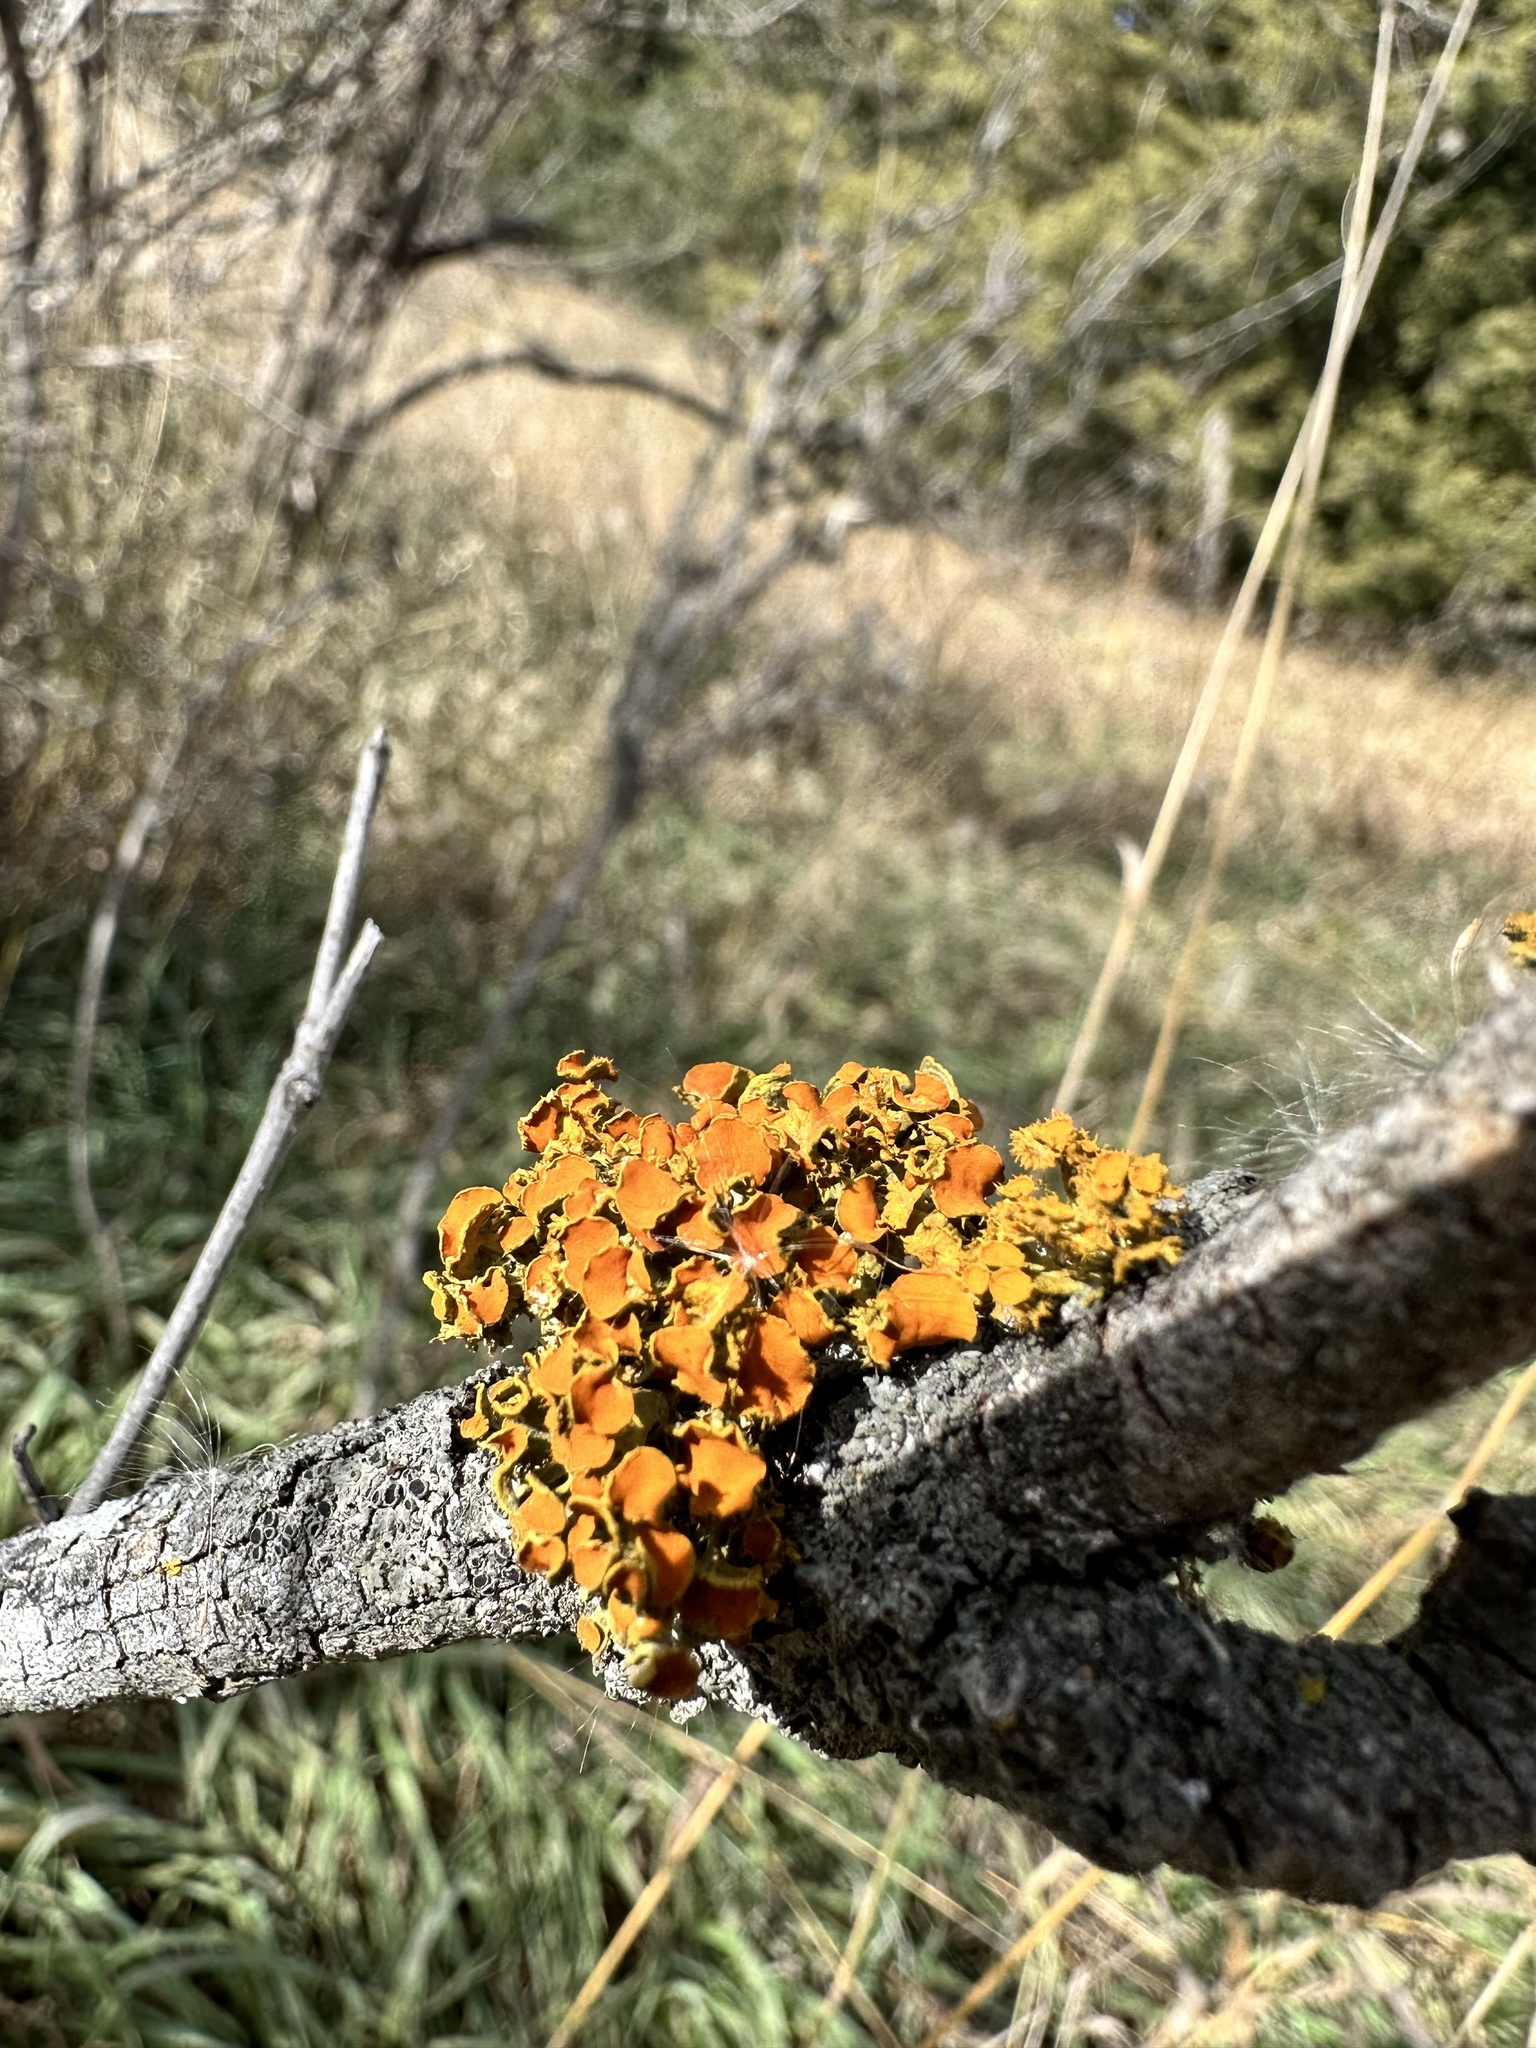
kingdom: Fungi
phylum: Ascomycota
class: Lecanoromycetes
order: Teloschistales
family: Teloschistaceae
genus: Niorma
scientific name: Niorma chrysophthalma
